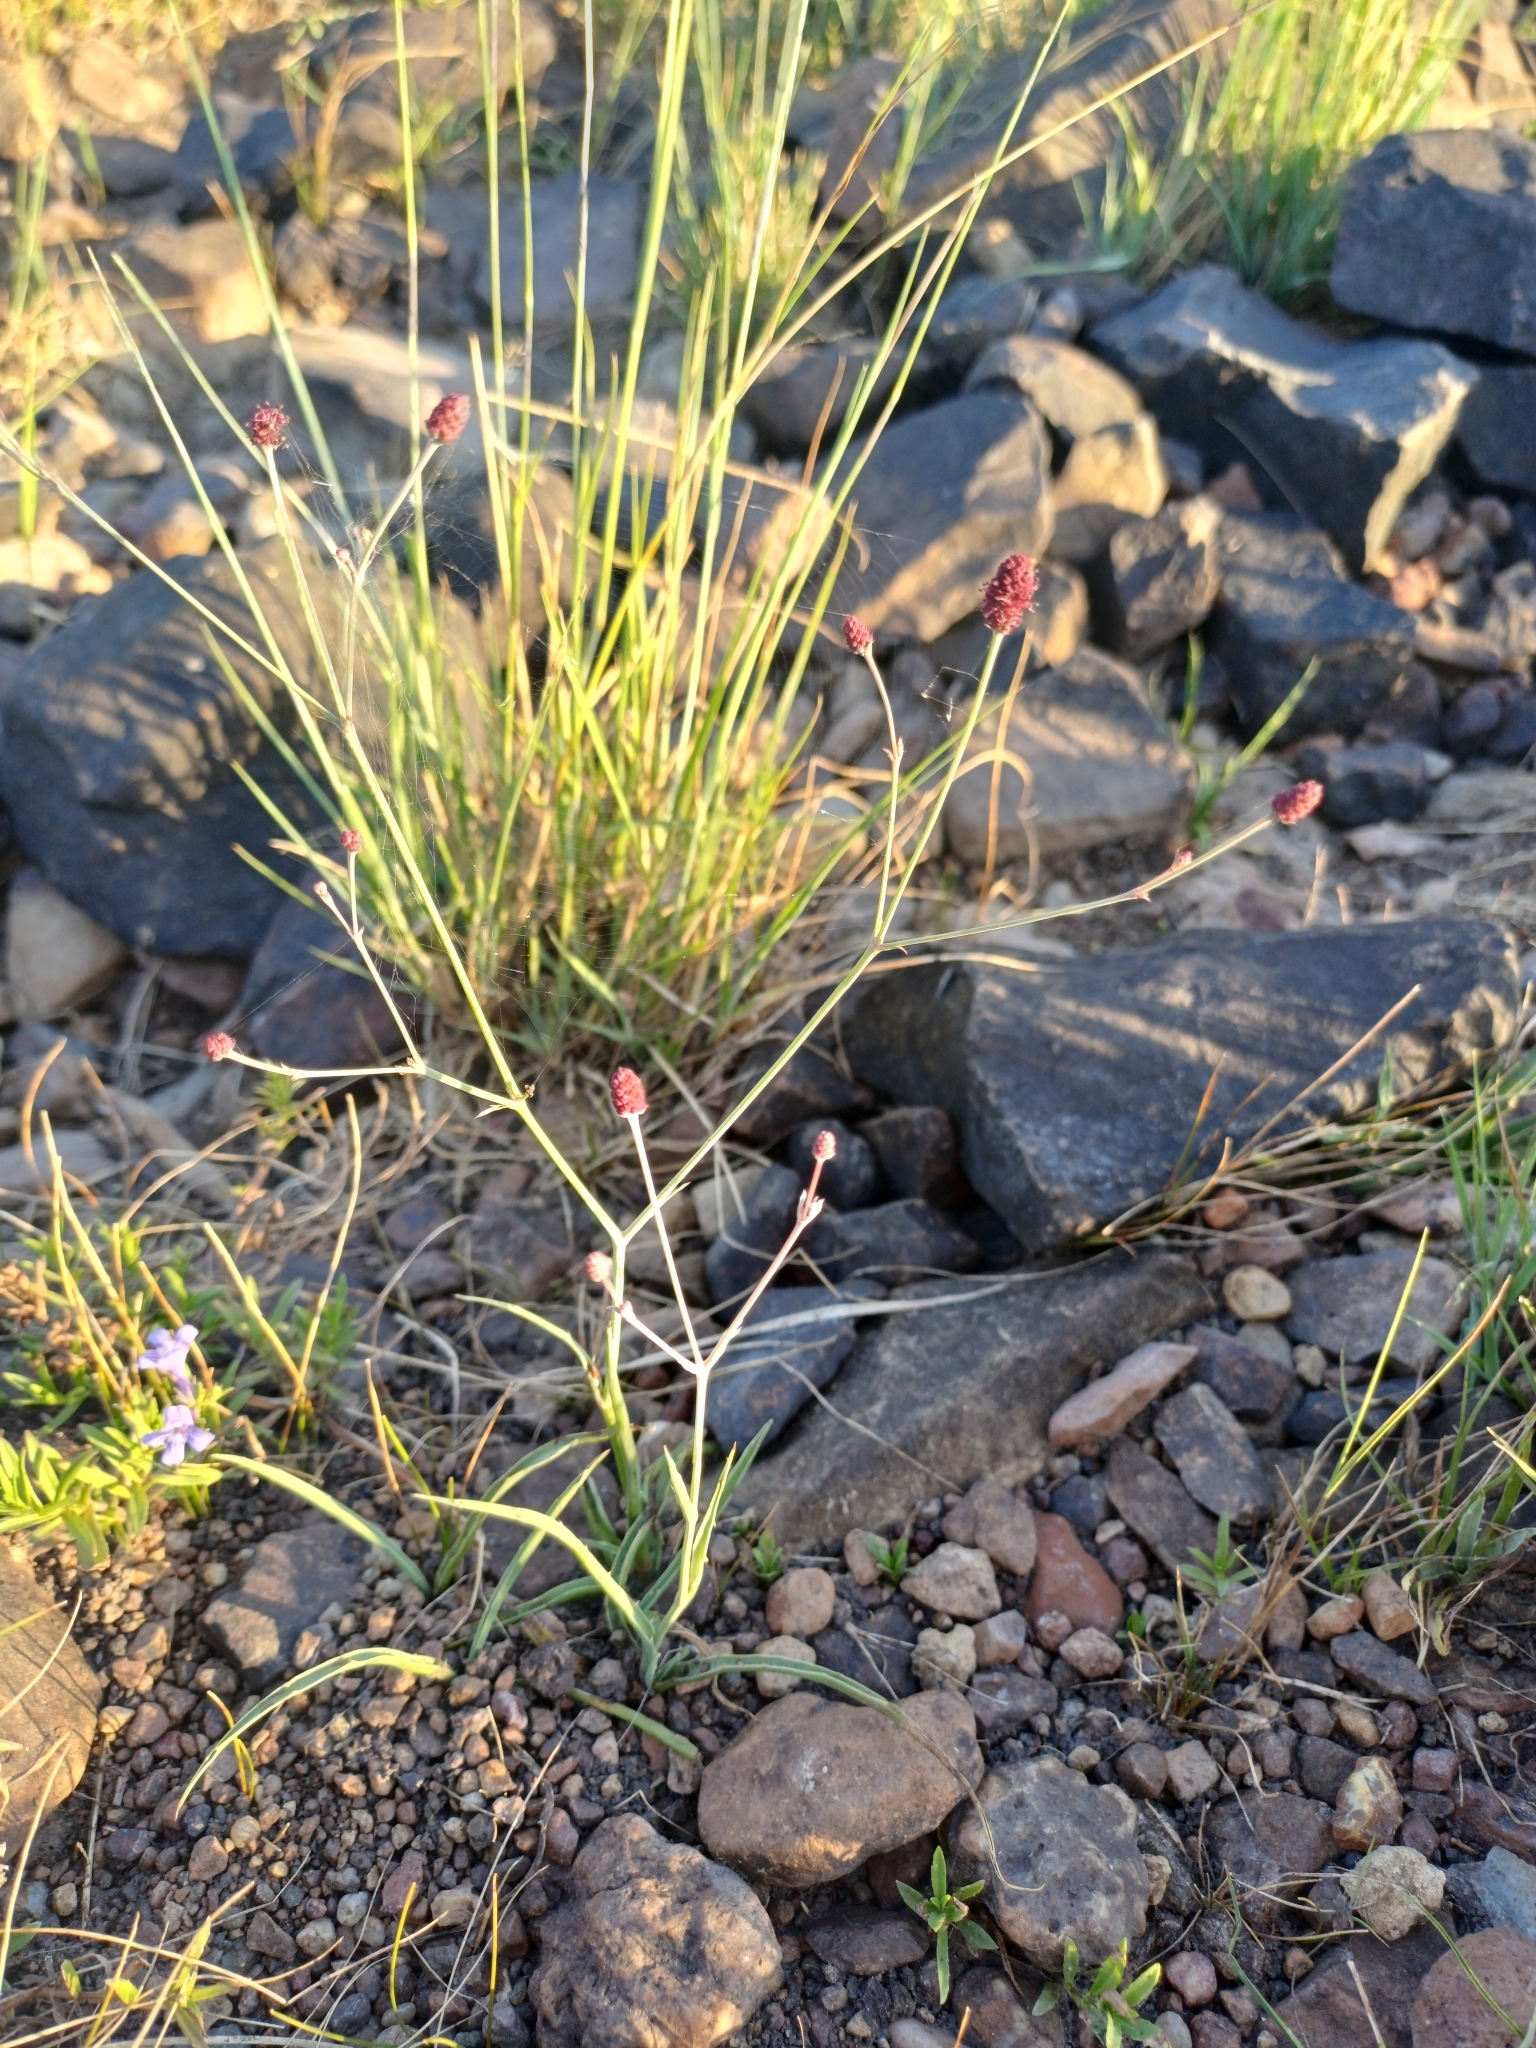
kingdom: Plantae
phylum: Tracheophyta
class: Magnoliopsida
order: Apiales
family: Apiaceae
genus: Eryngium
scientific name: Eryngium ebracteatum
